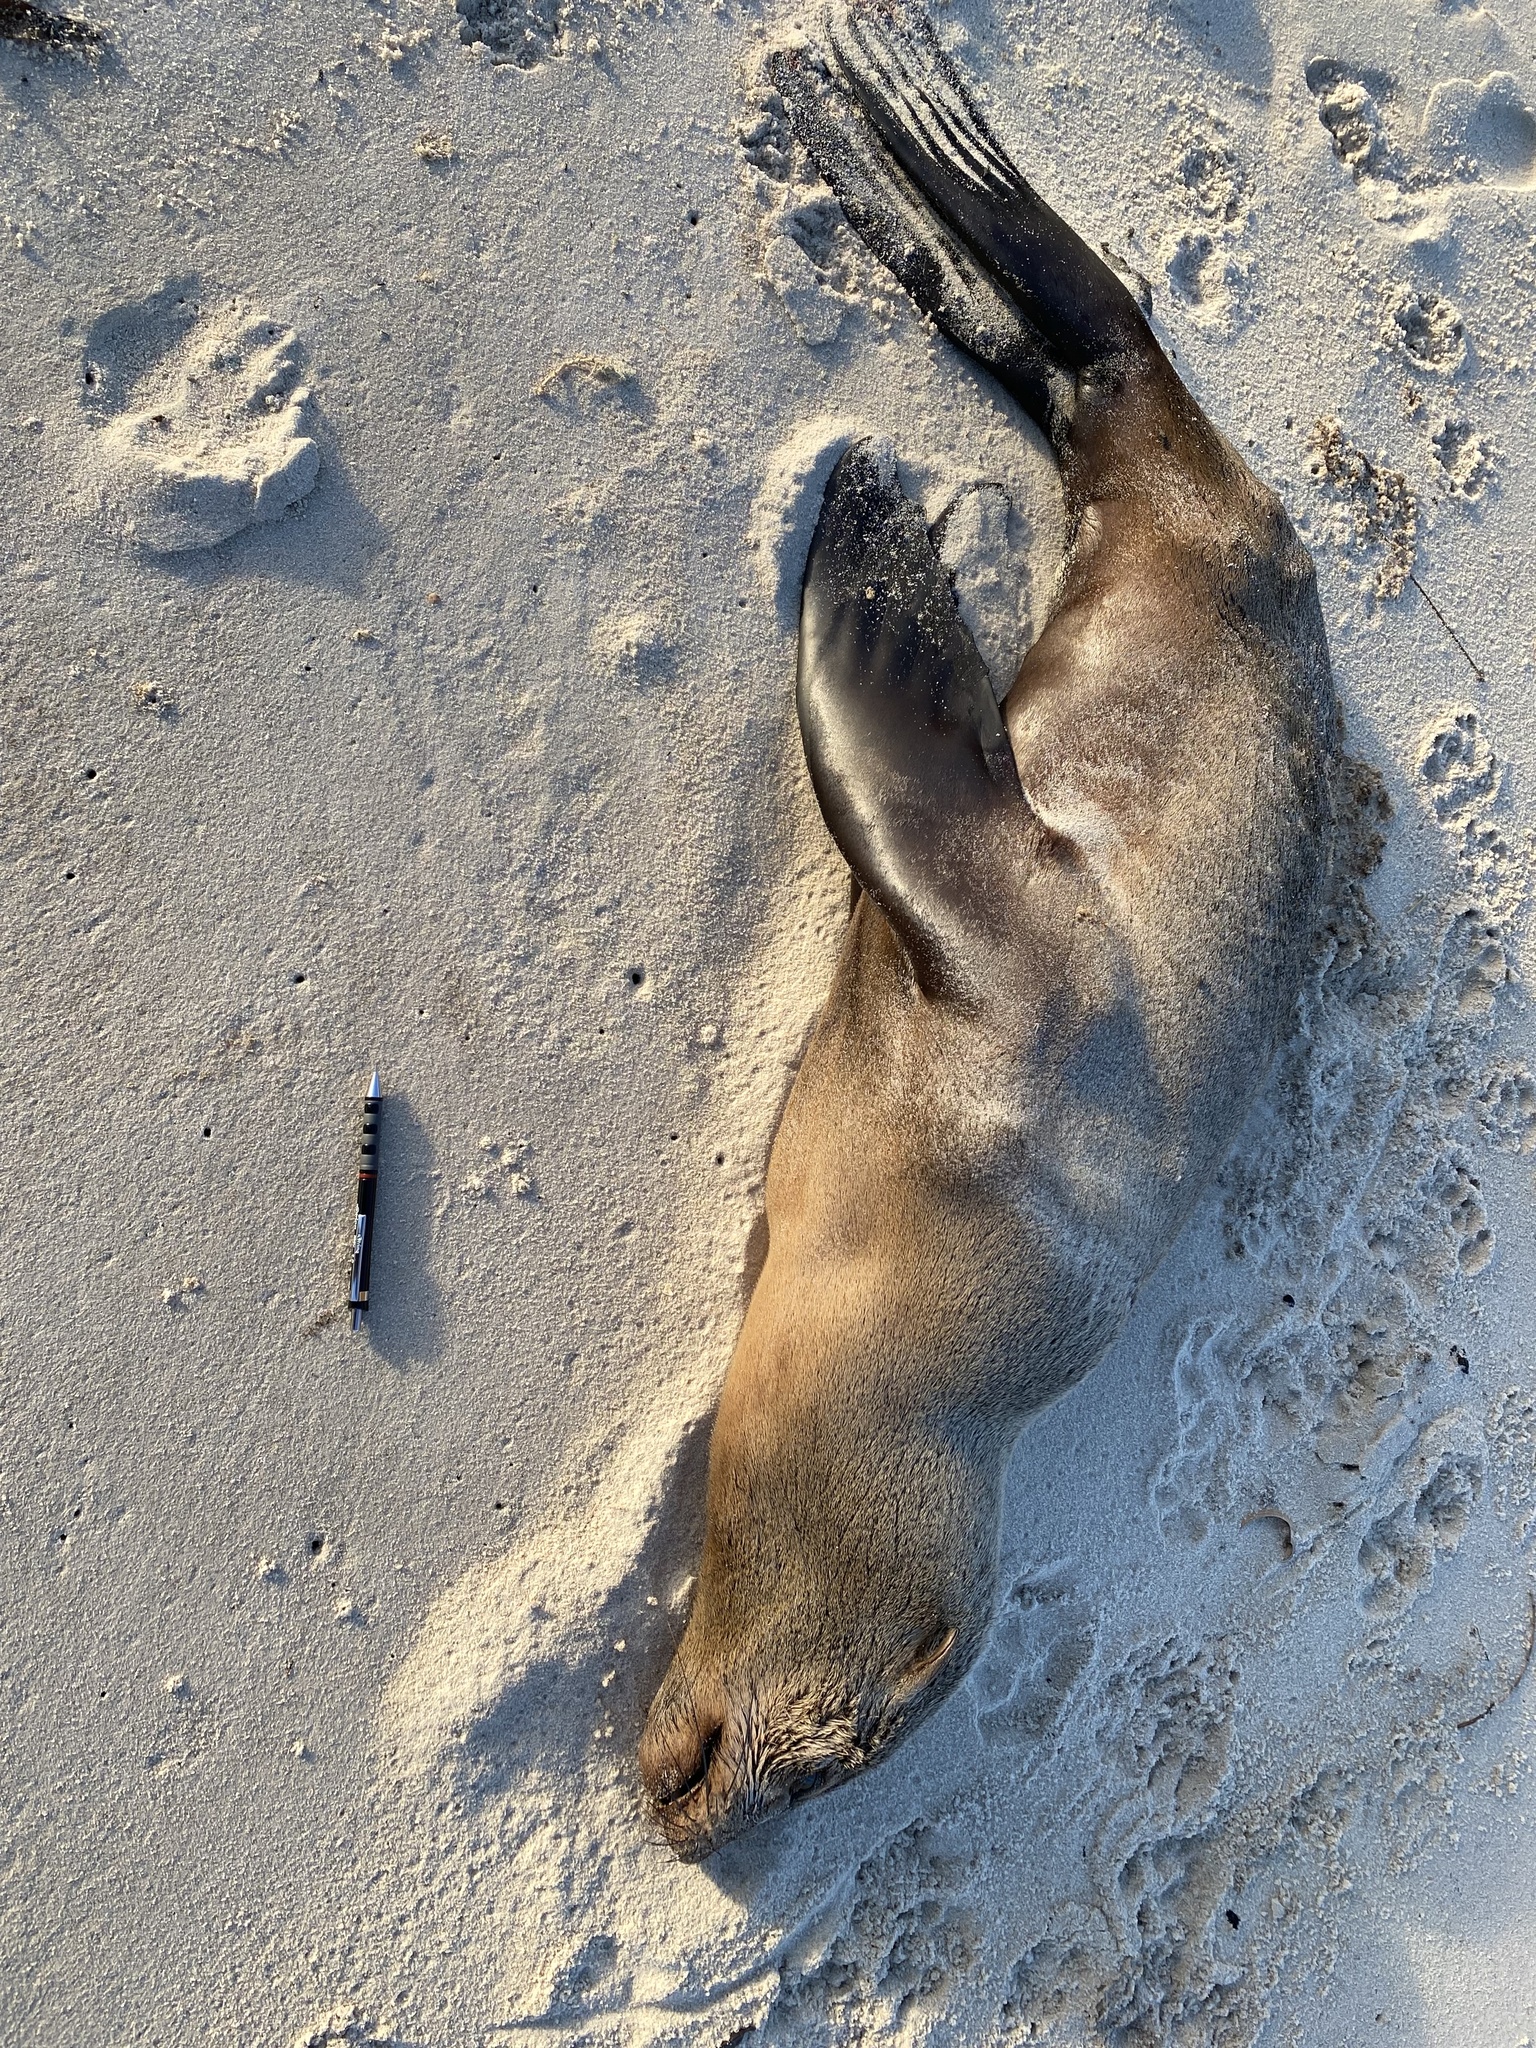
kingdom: Animalia
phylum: Chordata
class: Mammalia
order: Carnivora
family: Otariidae
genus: Arctocephalus
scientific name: Arctocephalus pusillus
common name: Brown fur seal
